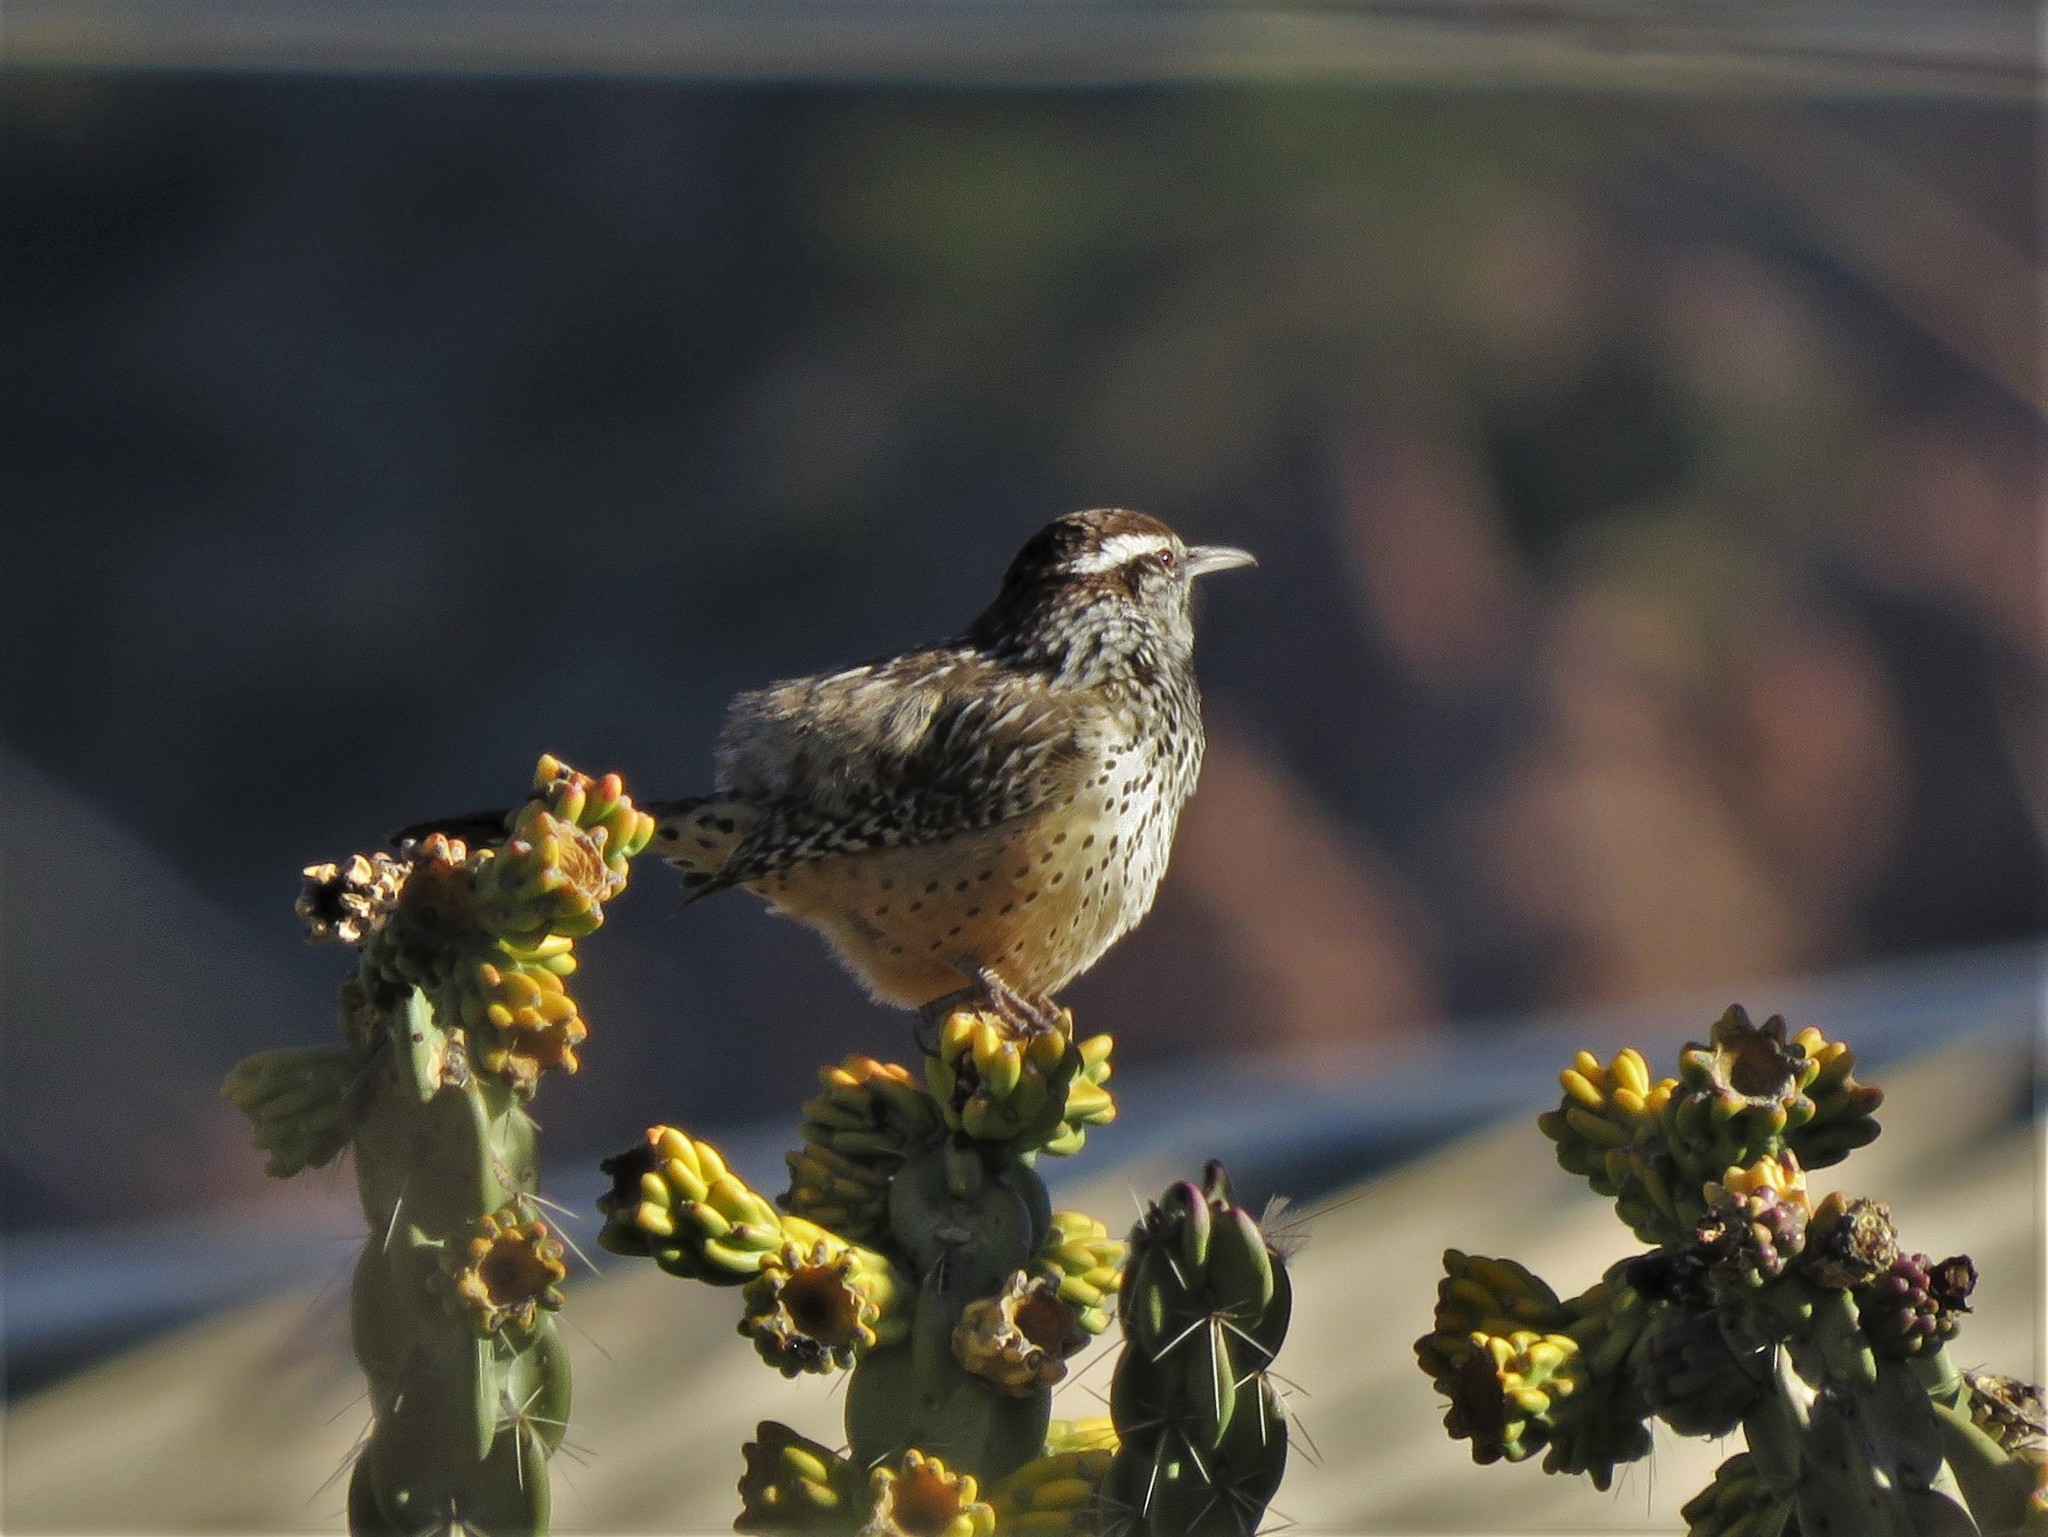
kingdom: Animalia
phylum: Chordata
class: Aves
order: Passeriformes
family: Troglodytidae
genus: Campylorhynchus
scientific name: Campylorhynchus brunneicapillus
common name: Cactus wren
